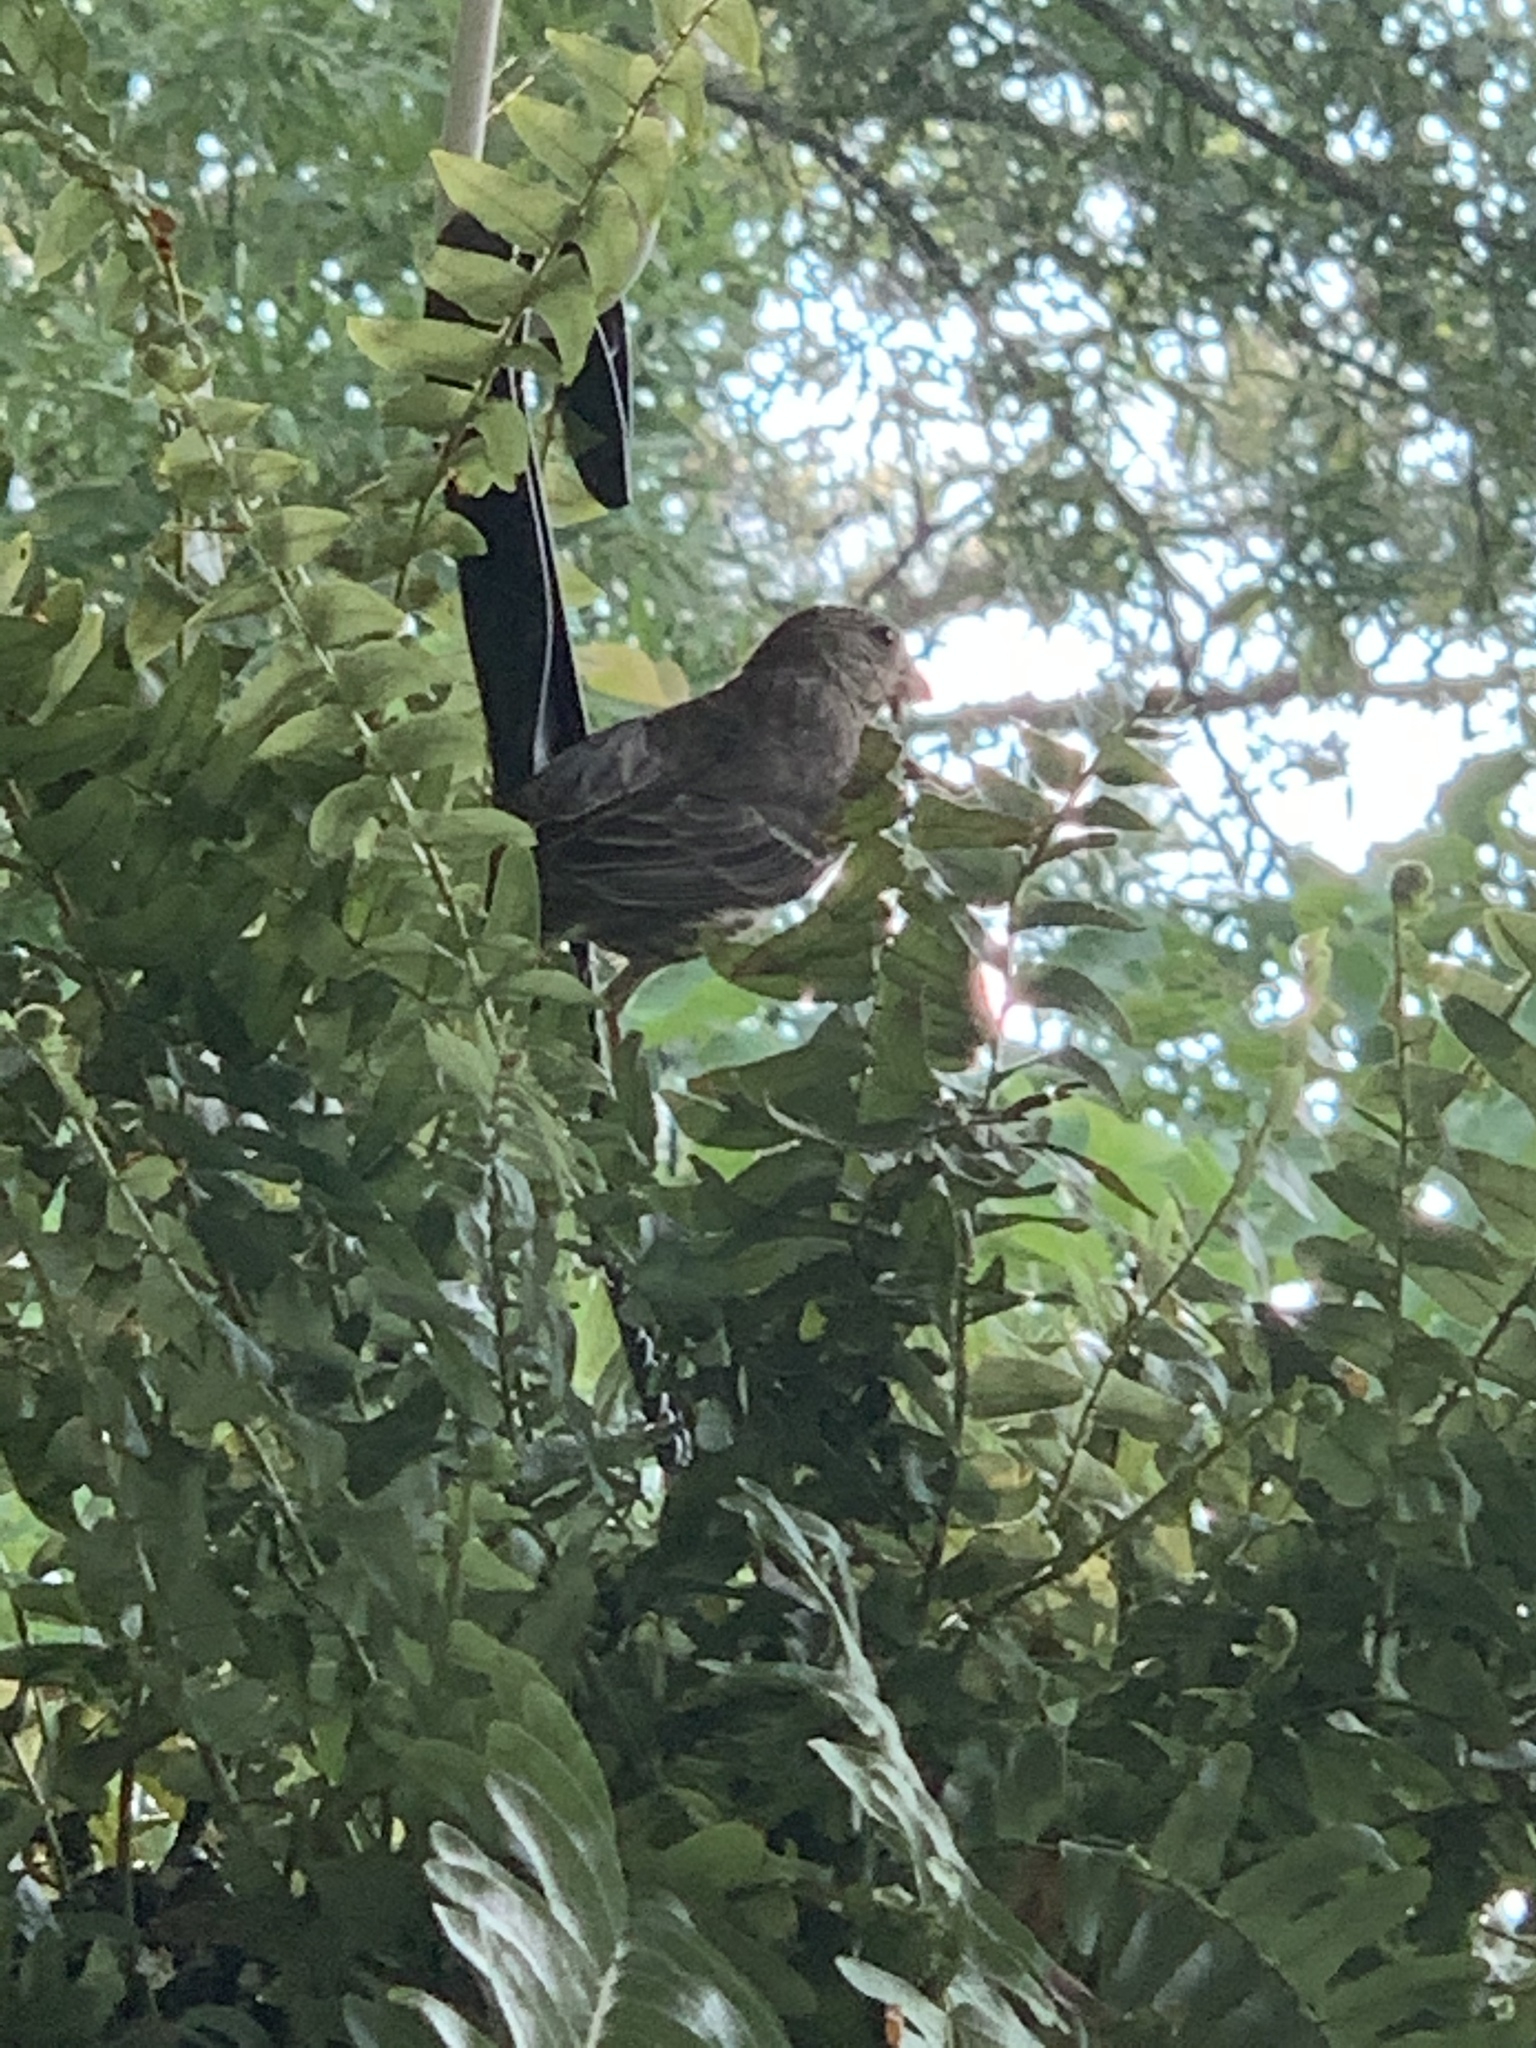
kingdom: Animalia
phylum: Chordata
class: Aves
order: Passeriformes
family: Fringillidae
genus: Haemorhous
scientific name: Haemorhous mexicanus
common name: House finch
